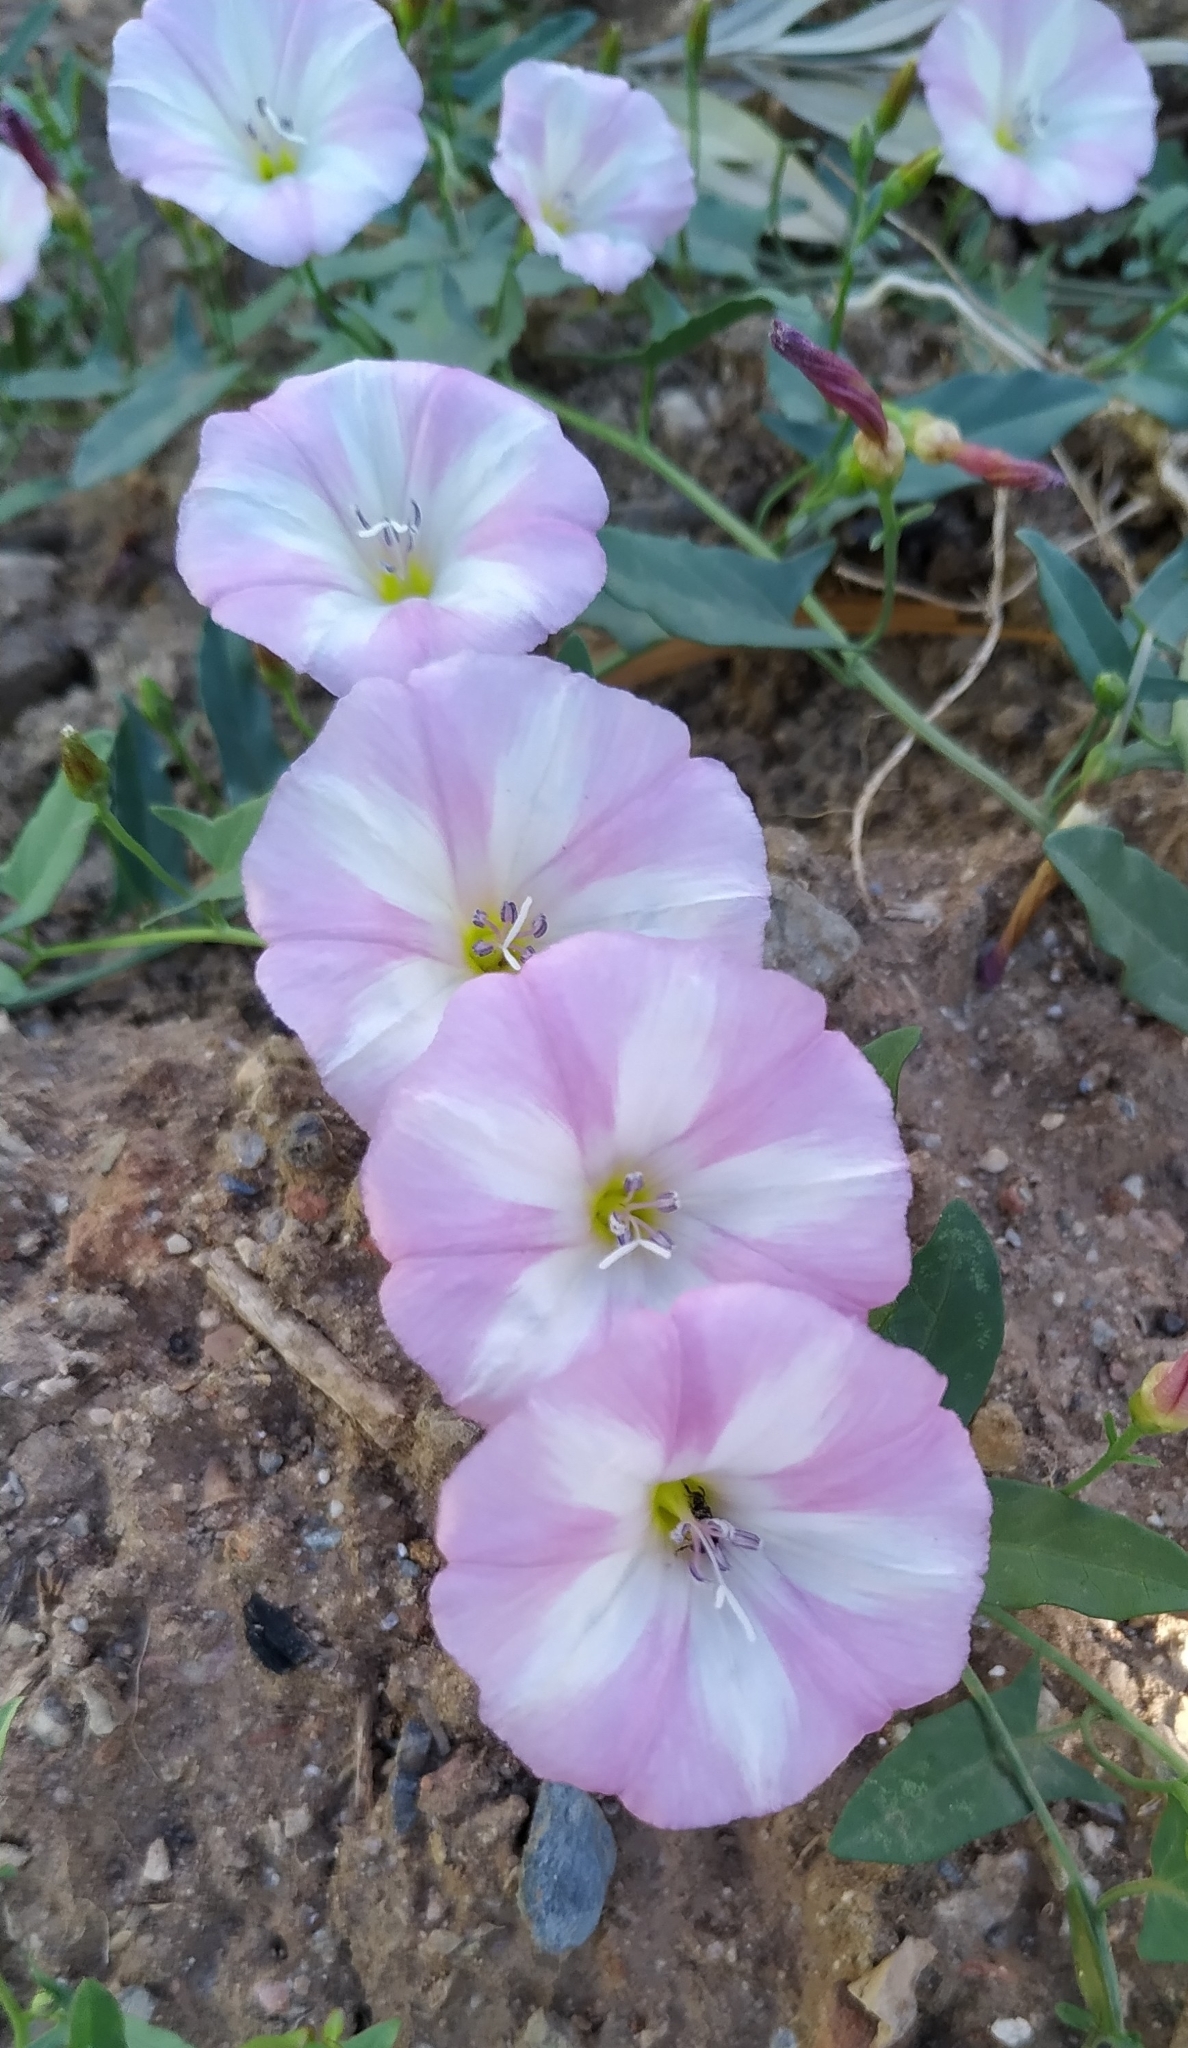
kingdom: Plantae
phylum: Tracheophyta
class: Magnoliopsida
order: Solanales
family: Convolvulaceae
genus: Convolvulus
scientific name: Convolvulus arvensis
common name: Field bindweed
